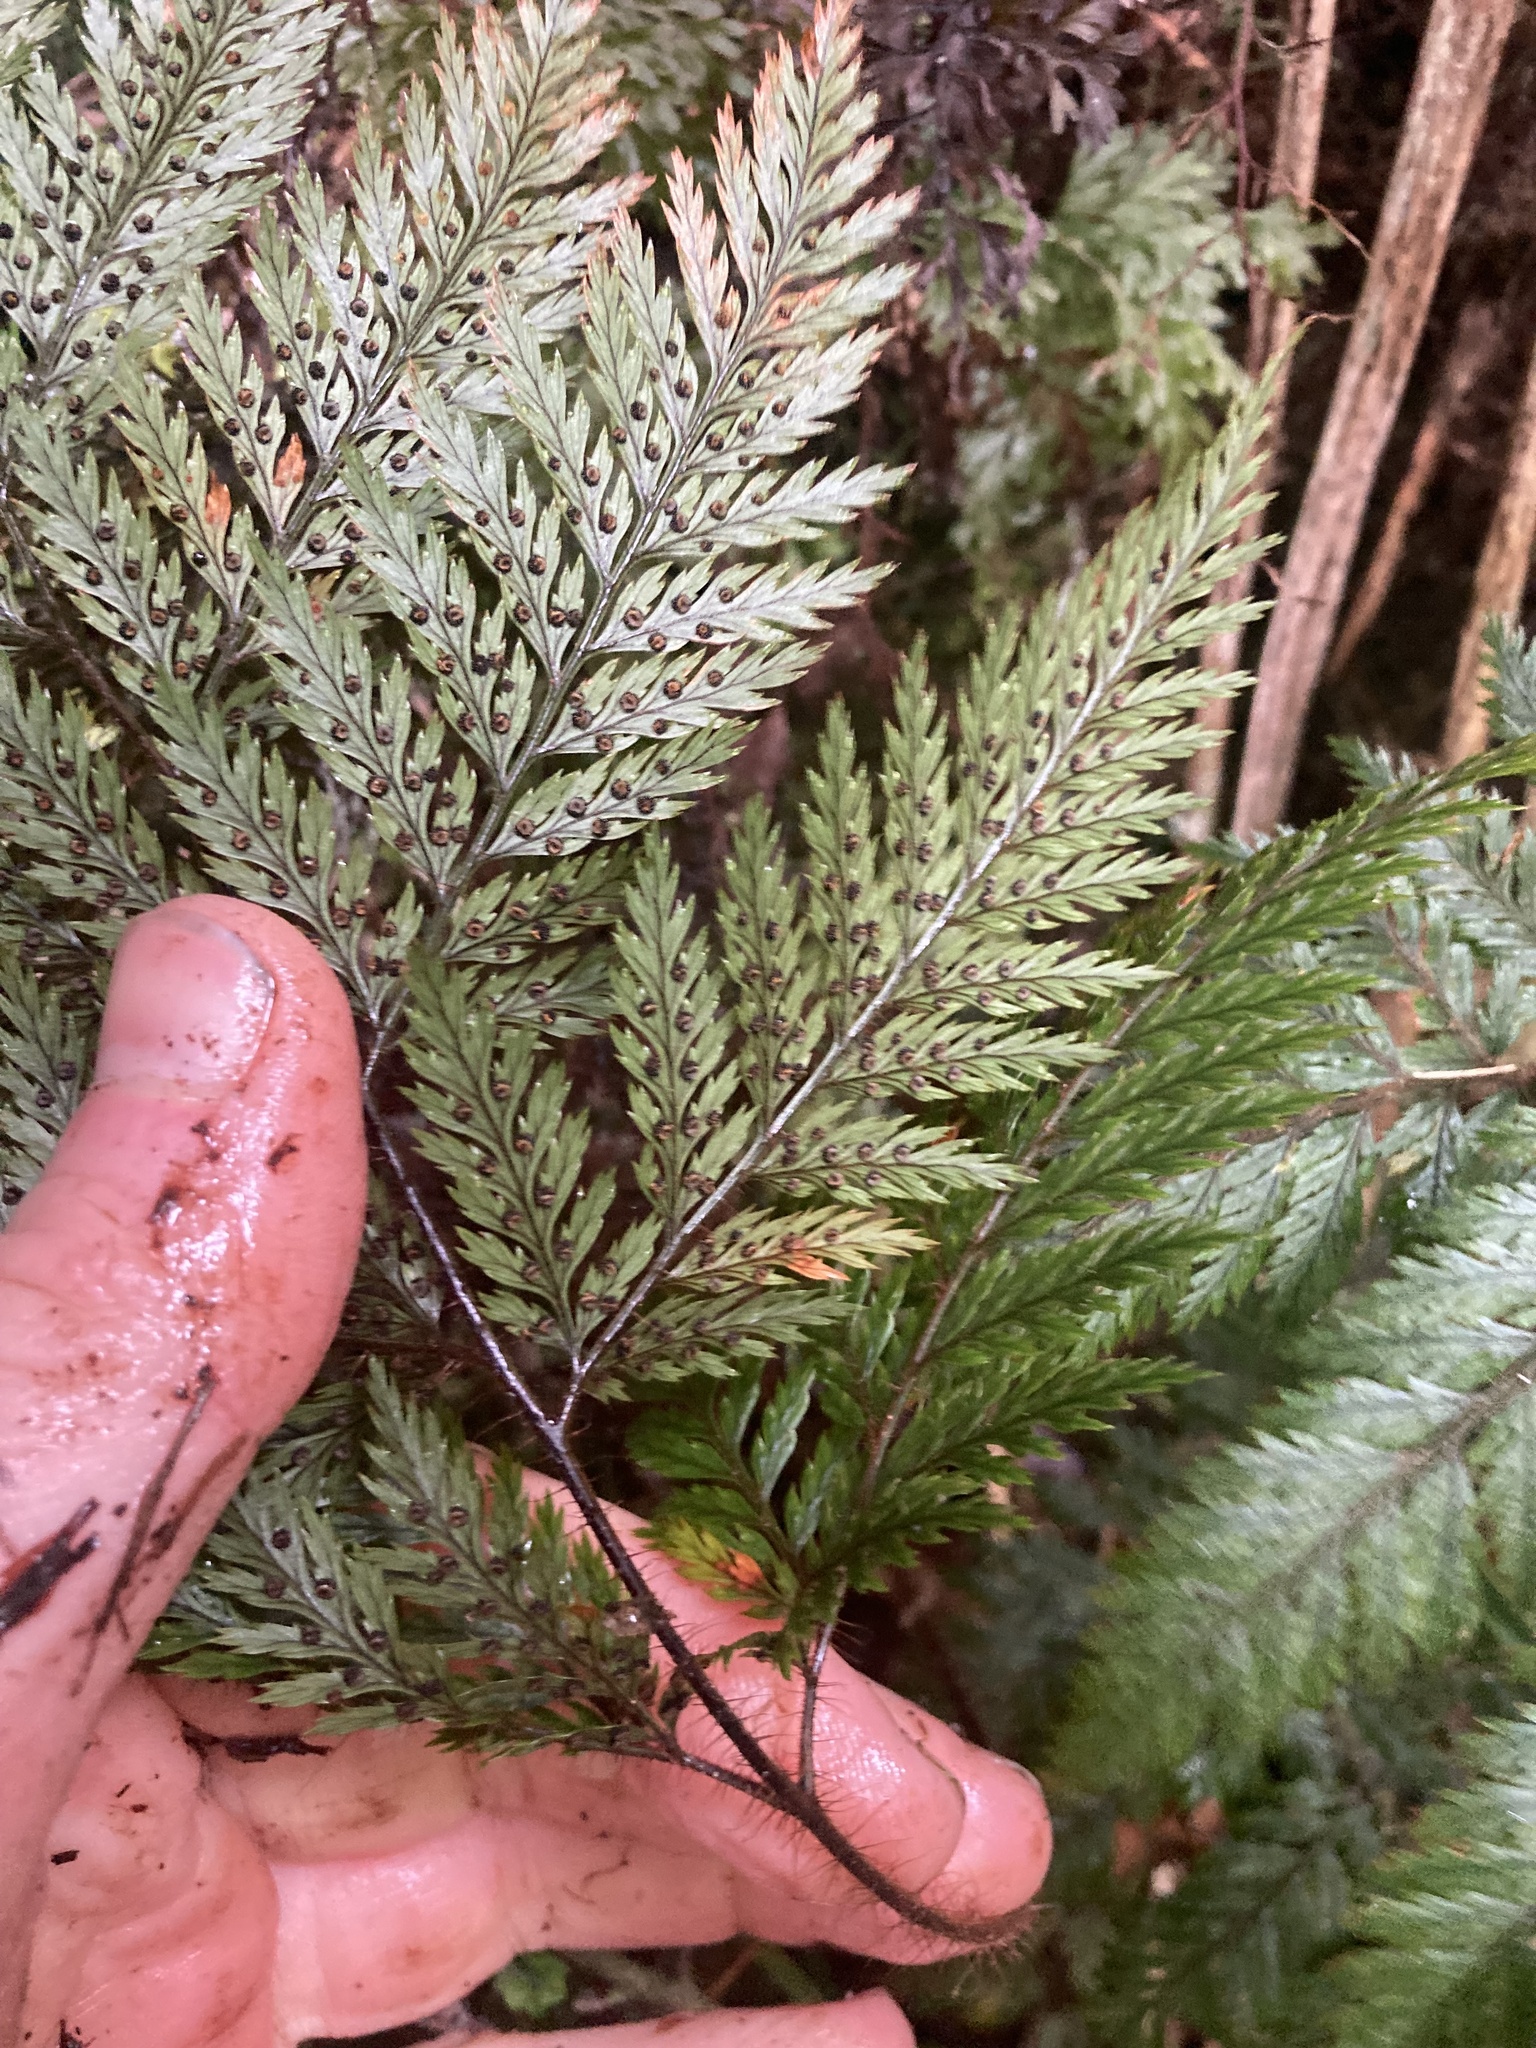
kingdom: Plantae
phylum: Tracheophyta
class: Polypodiopsida
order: Polypodiales
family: Dryopteridaceae
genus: Lastreopsis
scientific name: Lastreopsis hispida
